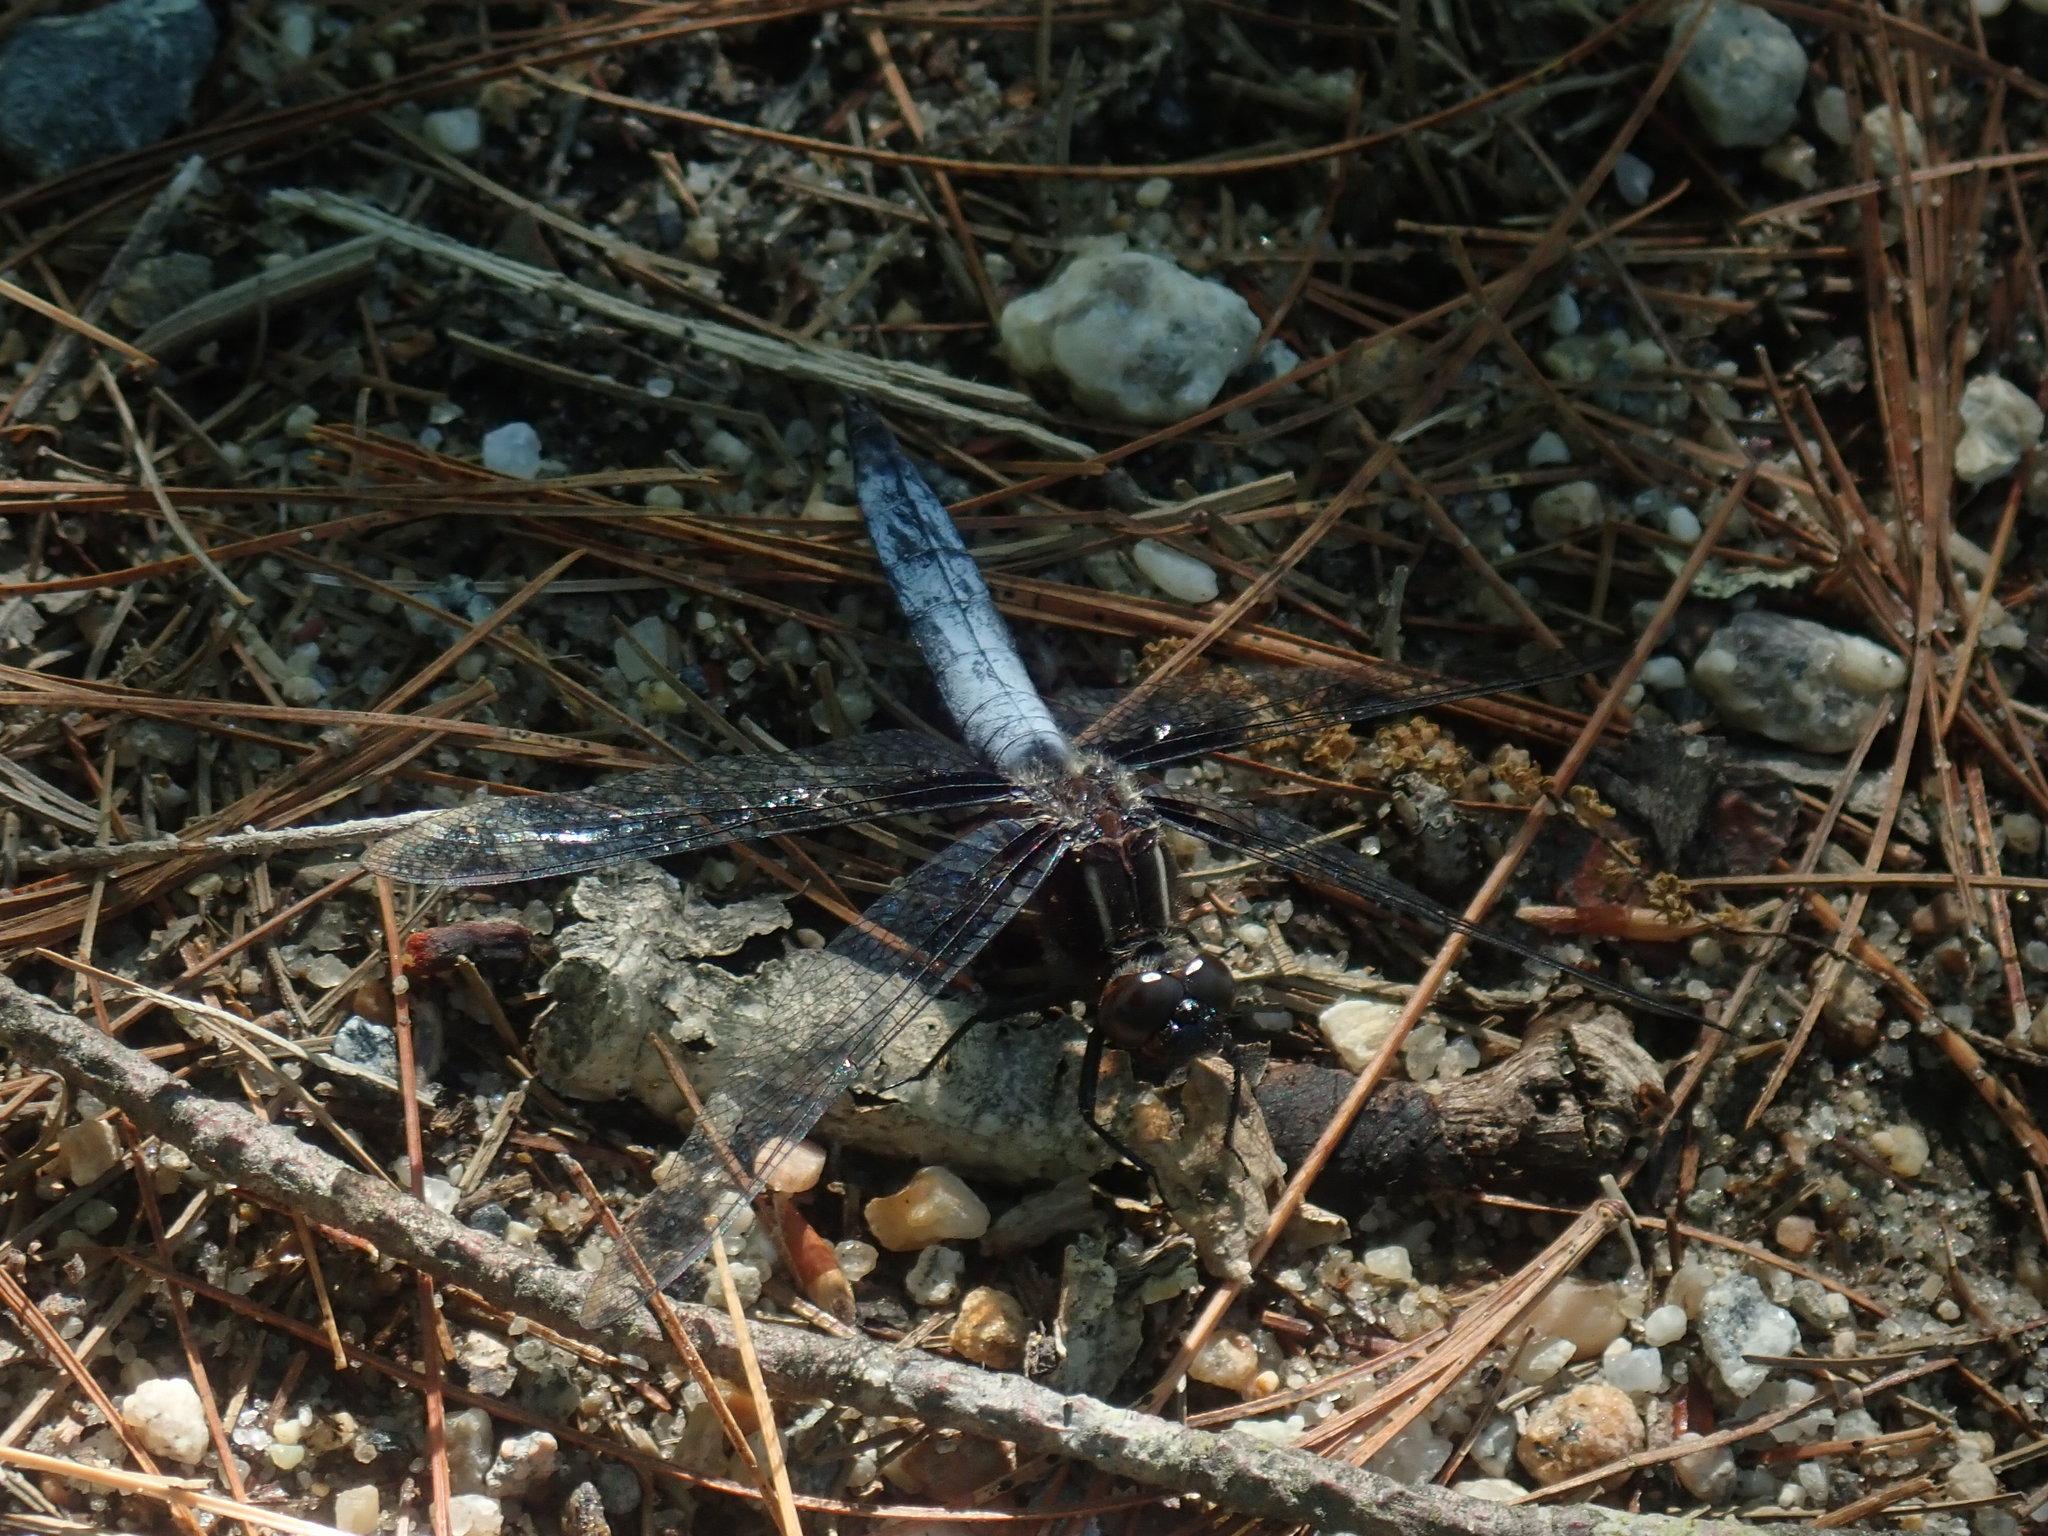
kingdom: Animalia
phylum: Arthropoda
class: Insecta
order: Odonata
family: Libellulidae
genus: Ladona
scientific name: Ladona exusta
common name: Libellule embrasée
